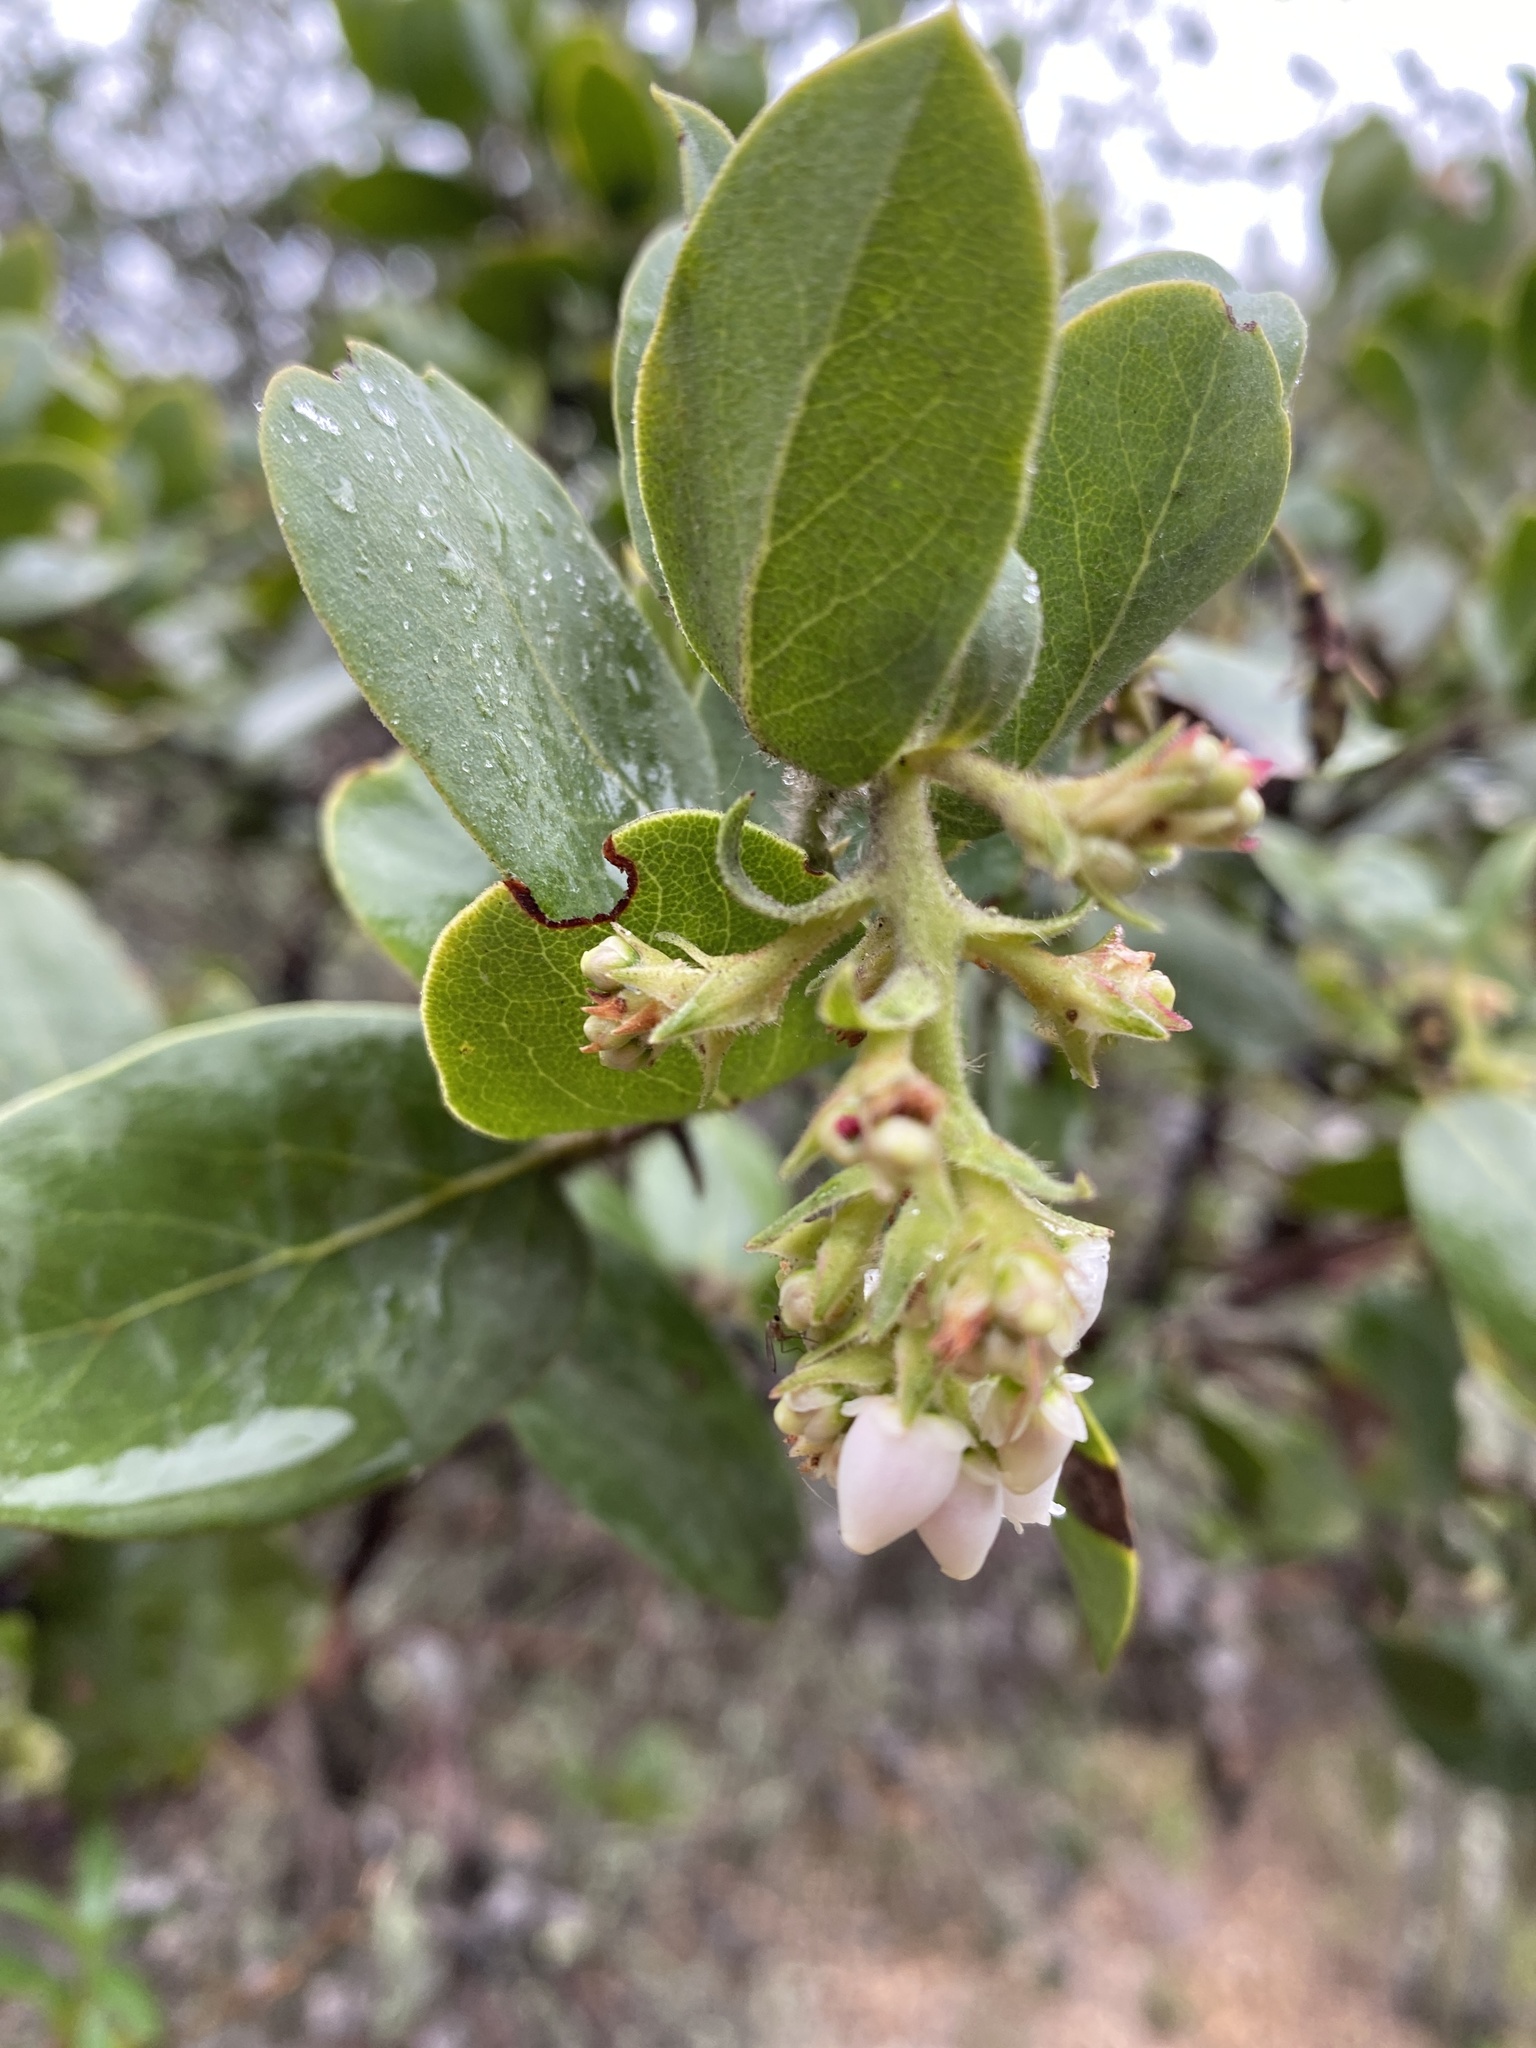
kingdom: Plantae
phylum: Tracheophyta
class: Magnoliopsida
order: Ericales
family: Ericaceae
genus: Arctostaphylos
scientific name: Arctostaphylos crustacea
